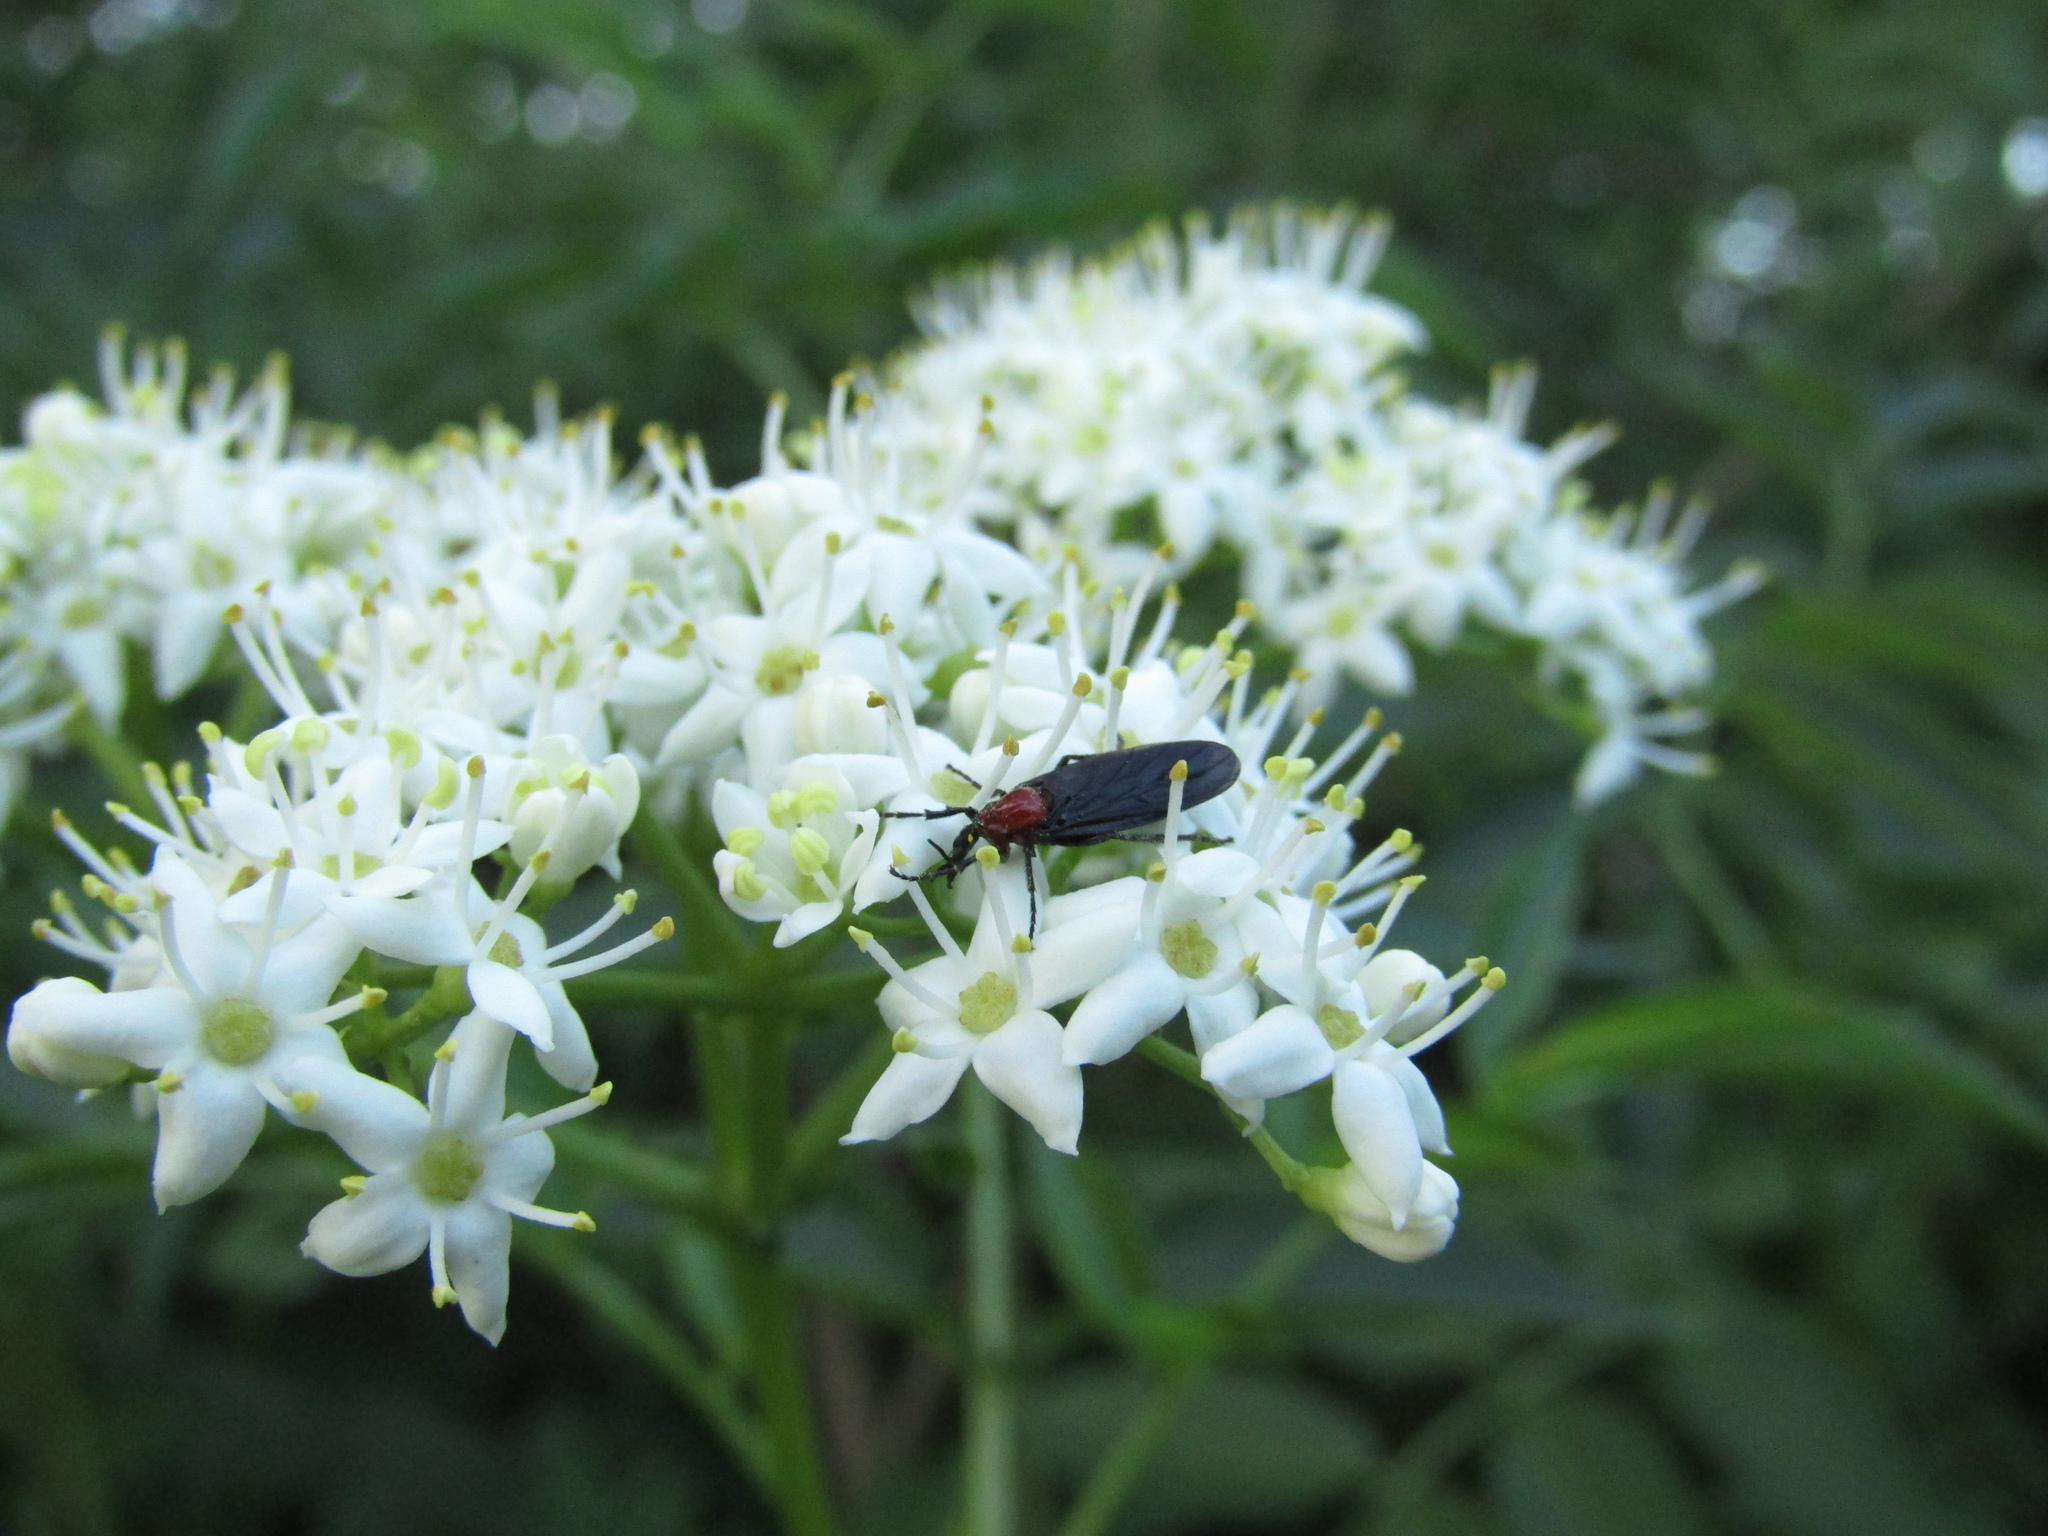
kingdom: Animalia
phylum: Arthropoda
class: Insecta
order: Diptera
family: Bibionidae
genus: Dilophus
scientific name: Dilophus pectoralis
